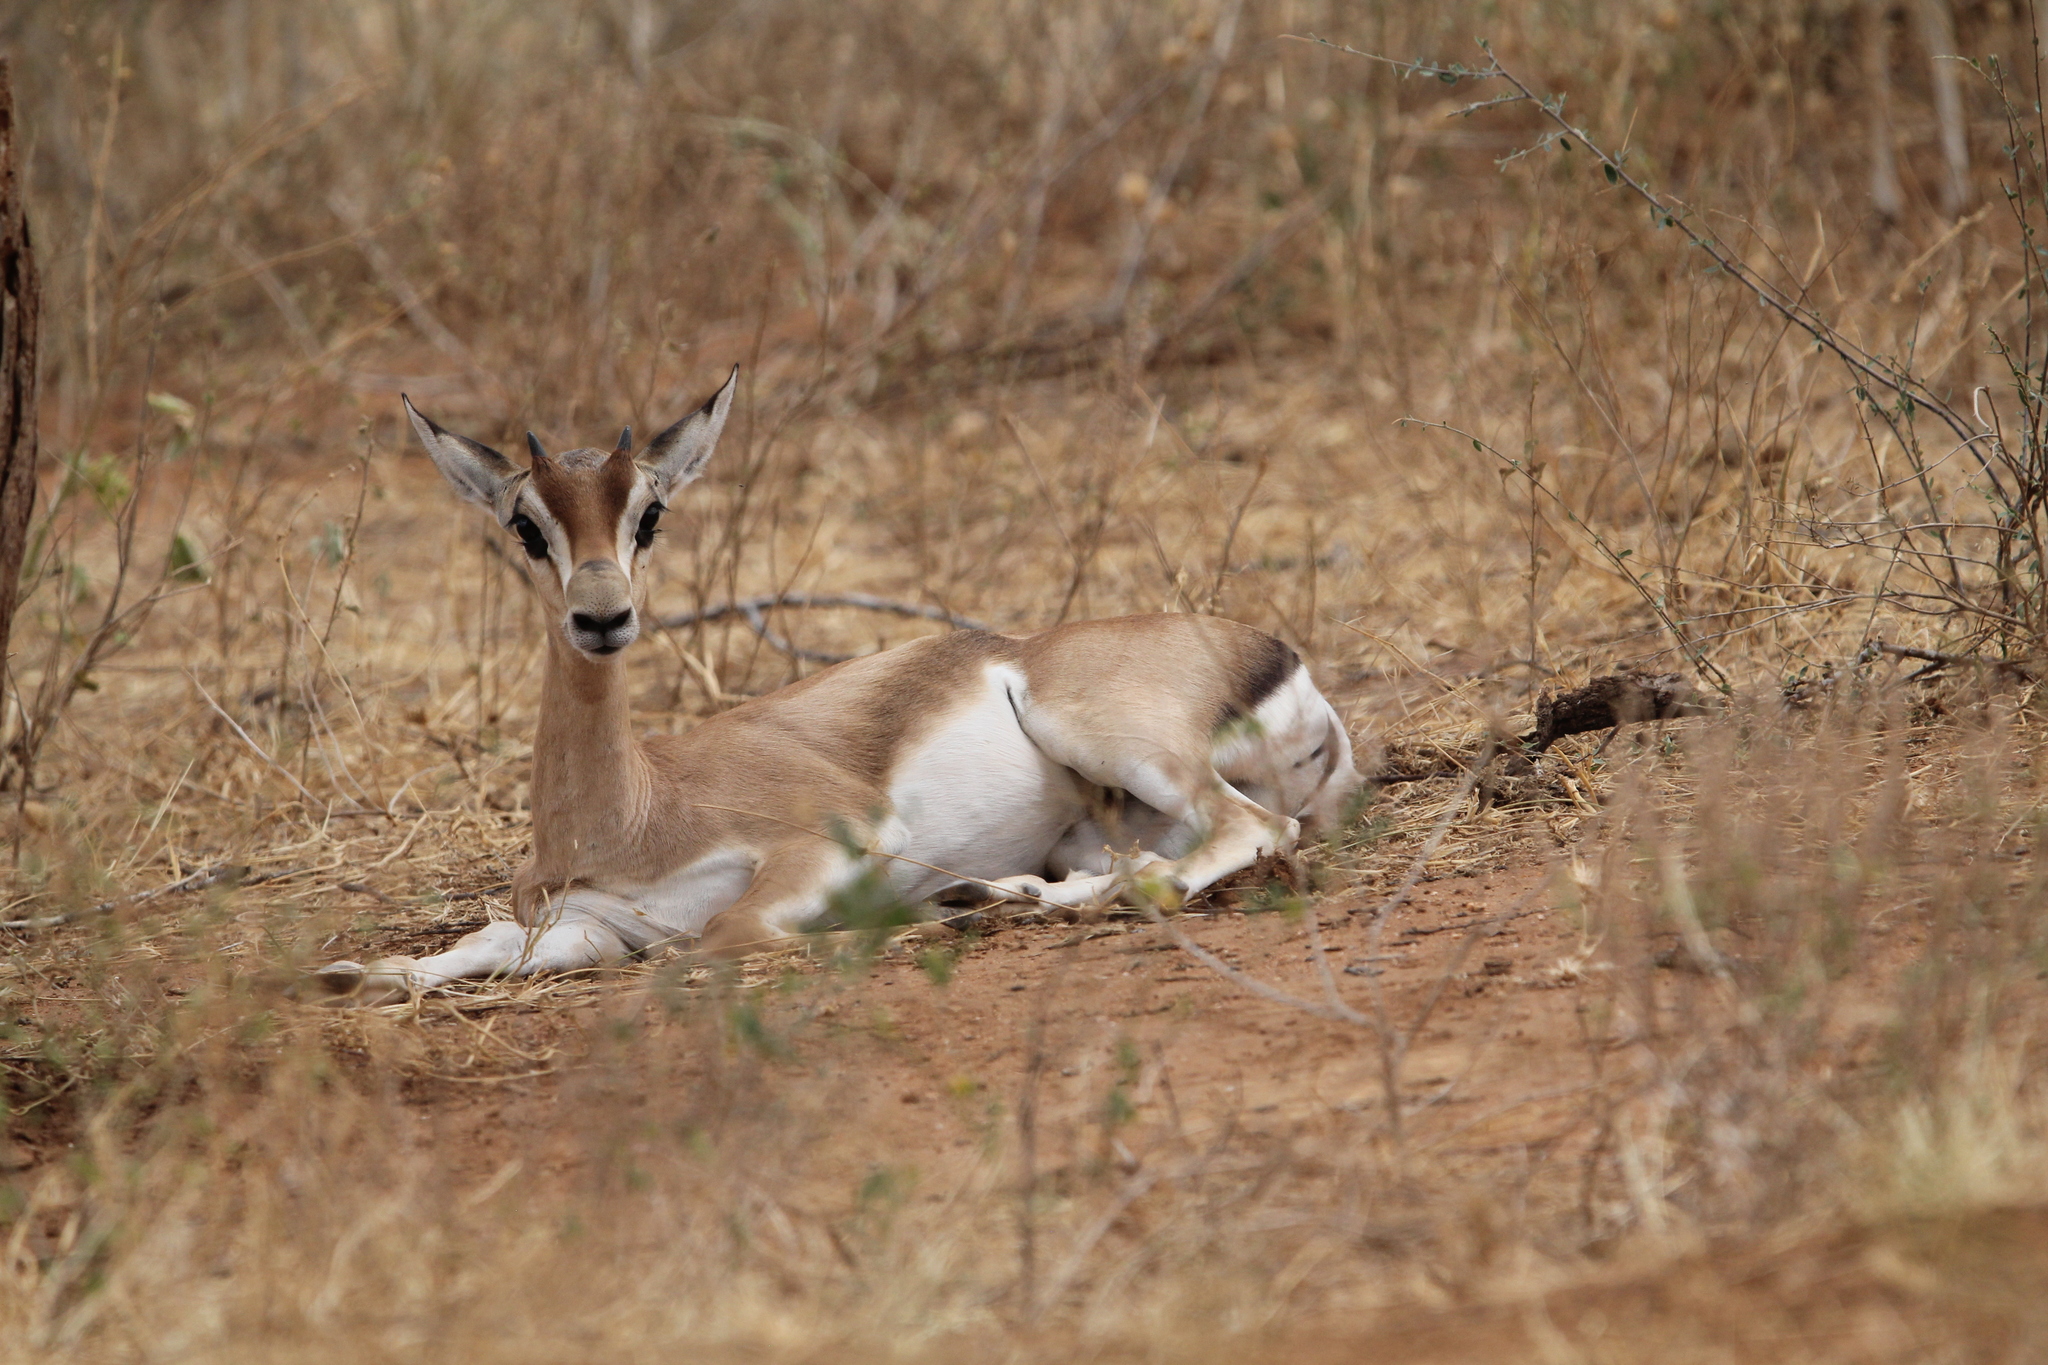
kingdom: Animalia
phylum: Chordata
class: Mammalia
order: Artiodactyla
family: Bovidae
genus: Nanger
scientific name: Nanger granti
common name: Grant's gazelle
